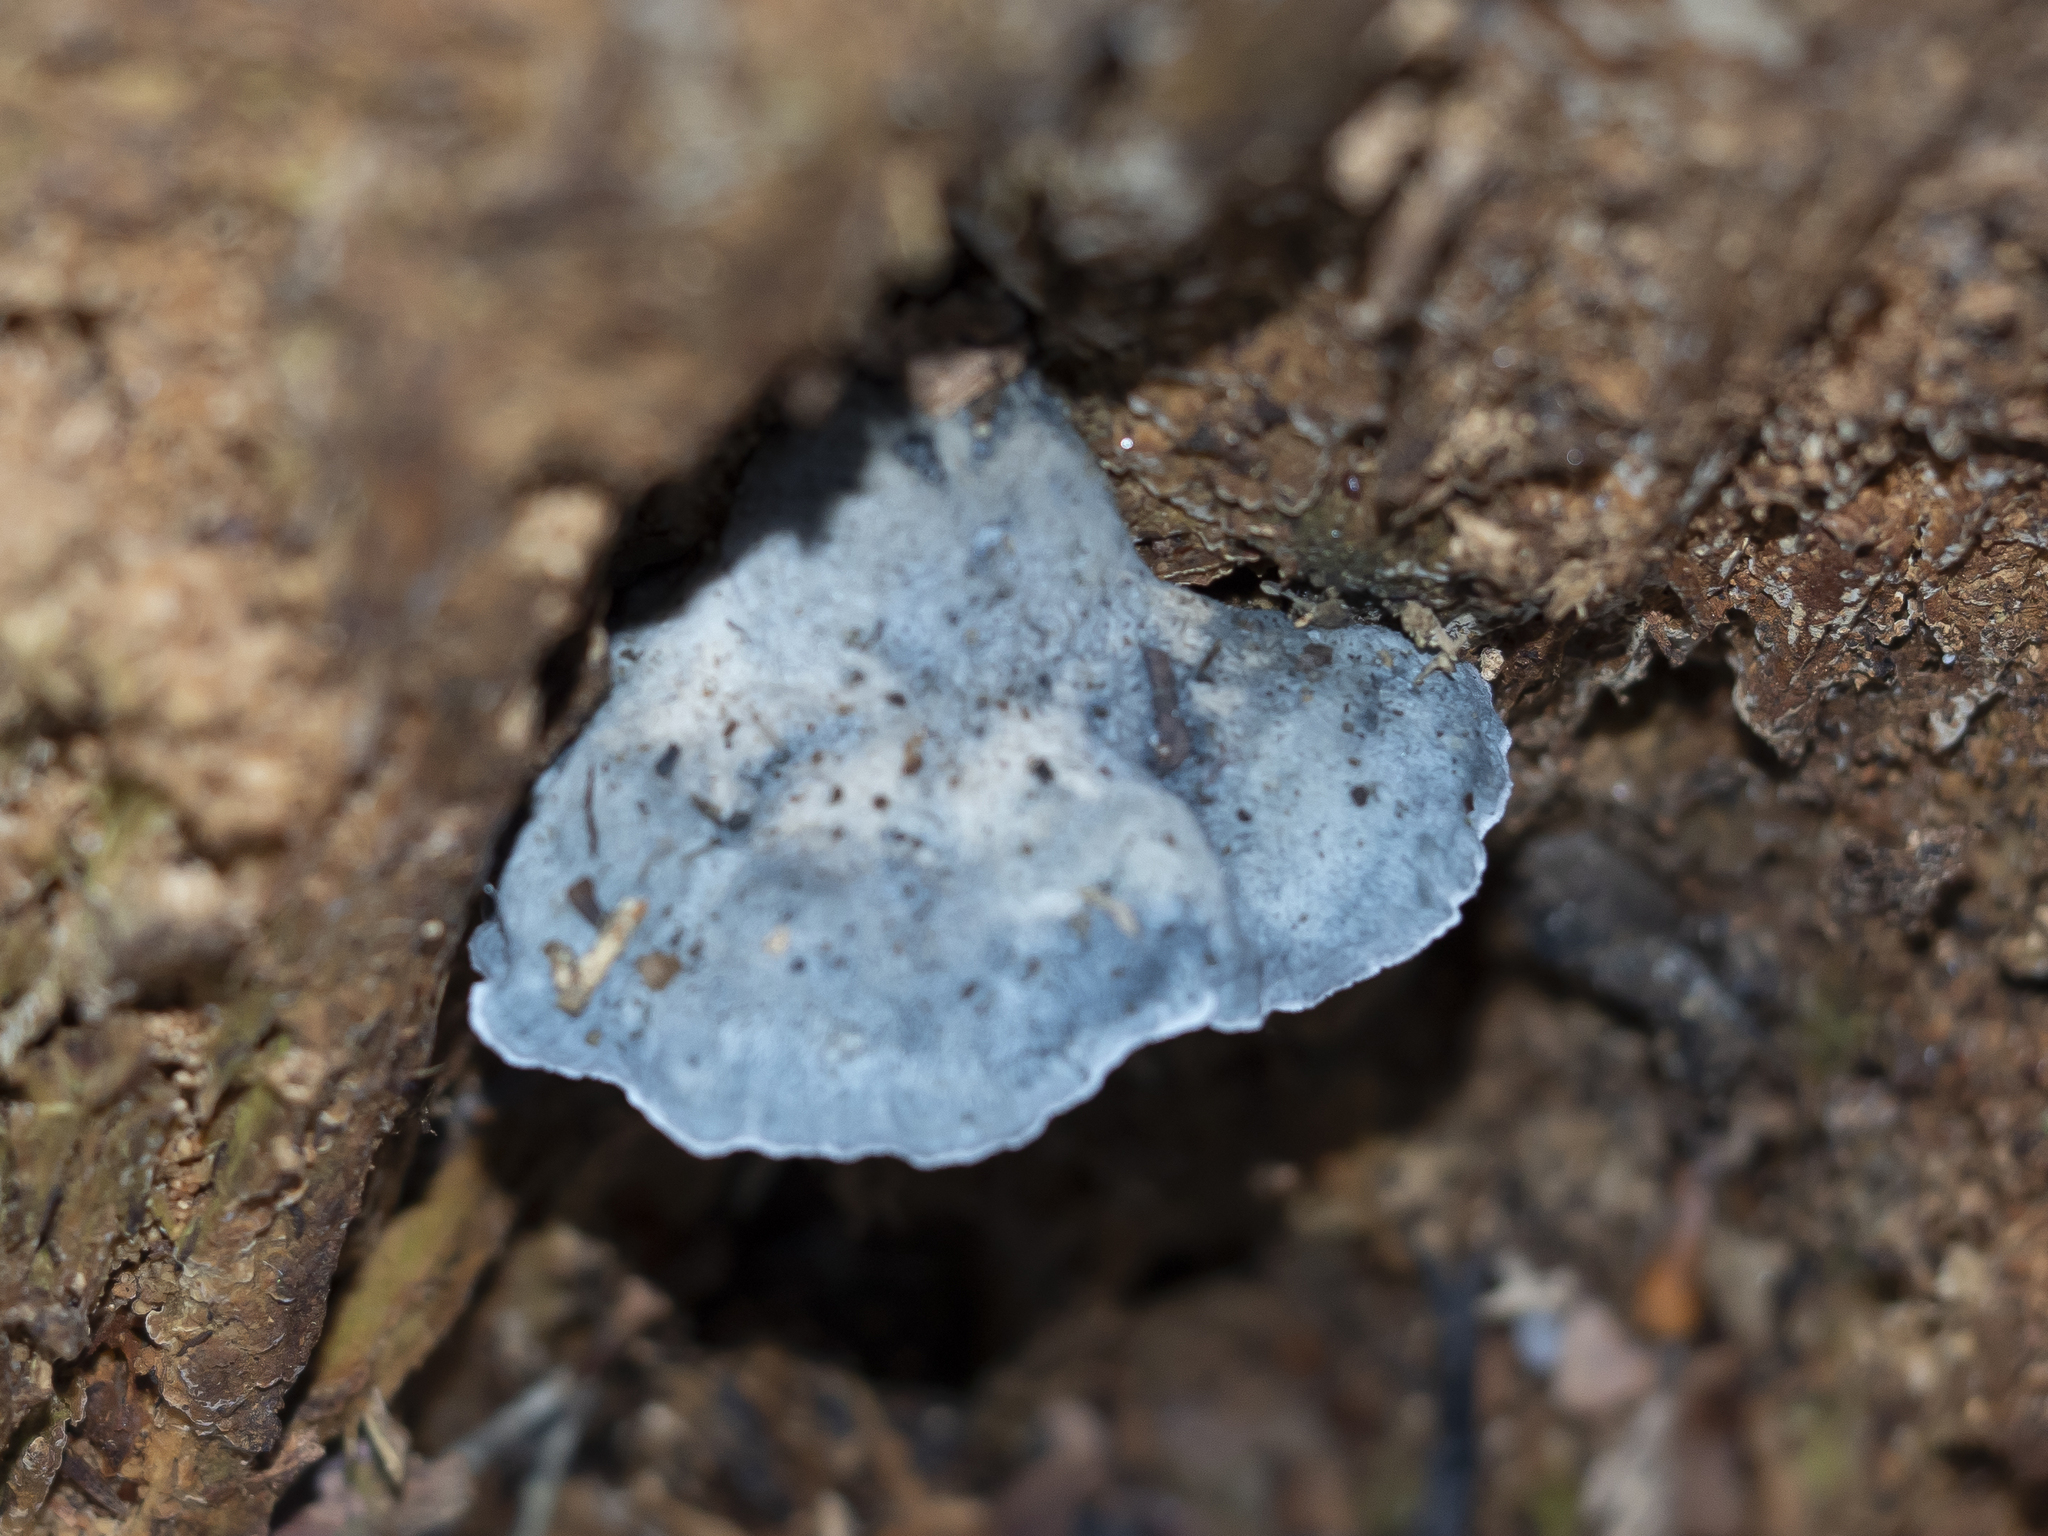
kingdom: Fungi
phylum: Basidiomycota
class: Agaricomycetes
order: Polyporales
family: Polyporaceae
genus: Cyanosporus
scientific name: Cyanosporus caesius
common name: Blue cheese polypore
